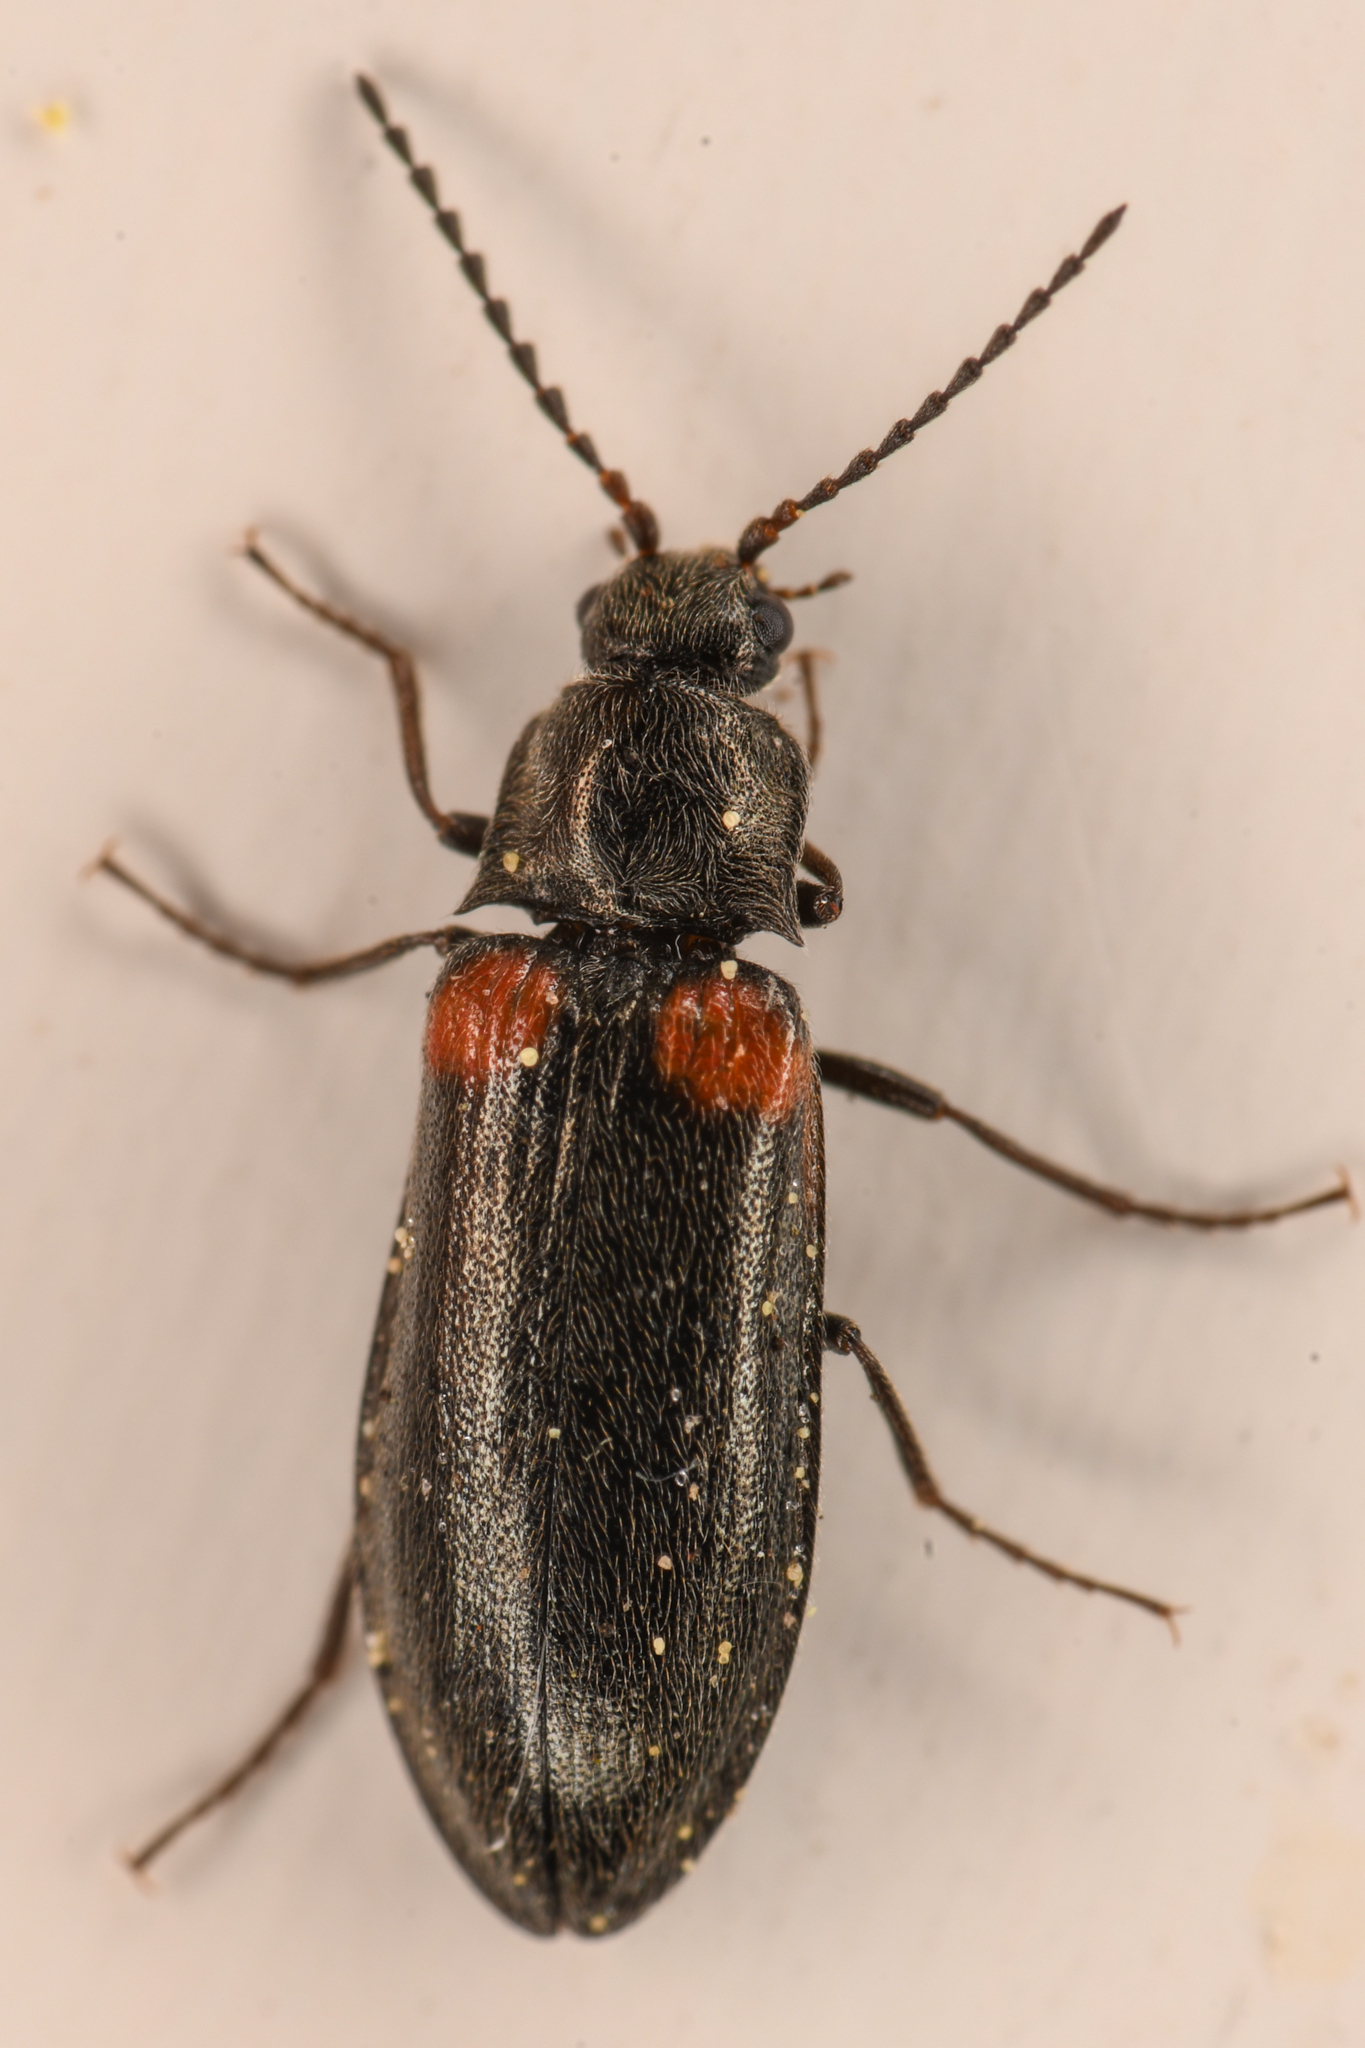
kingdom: Animalia
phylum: Arthropoda
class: Insecta
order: Coleoptera
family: Elateridae
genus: Eanus
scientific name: Eanus estriatus
